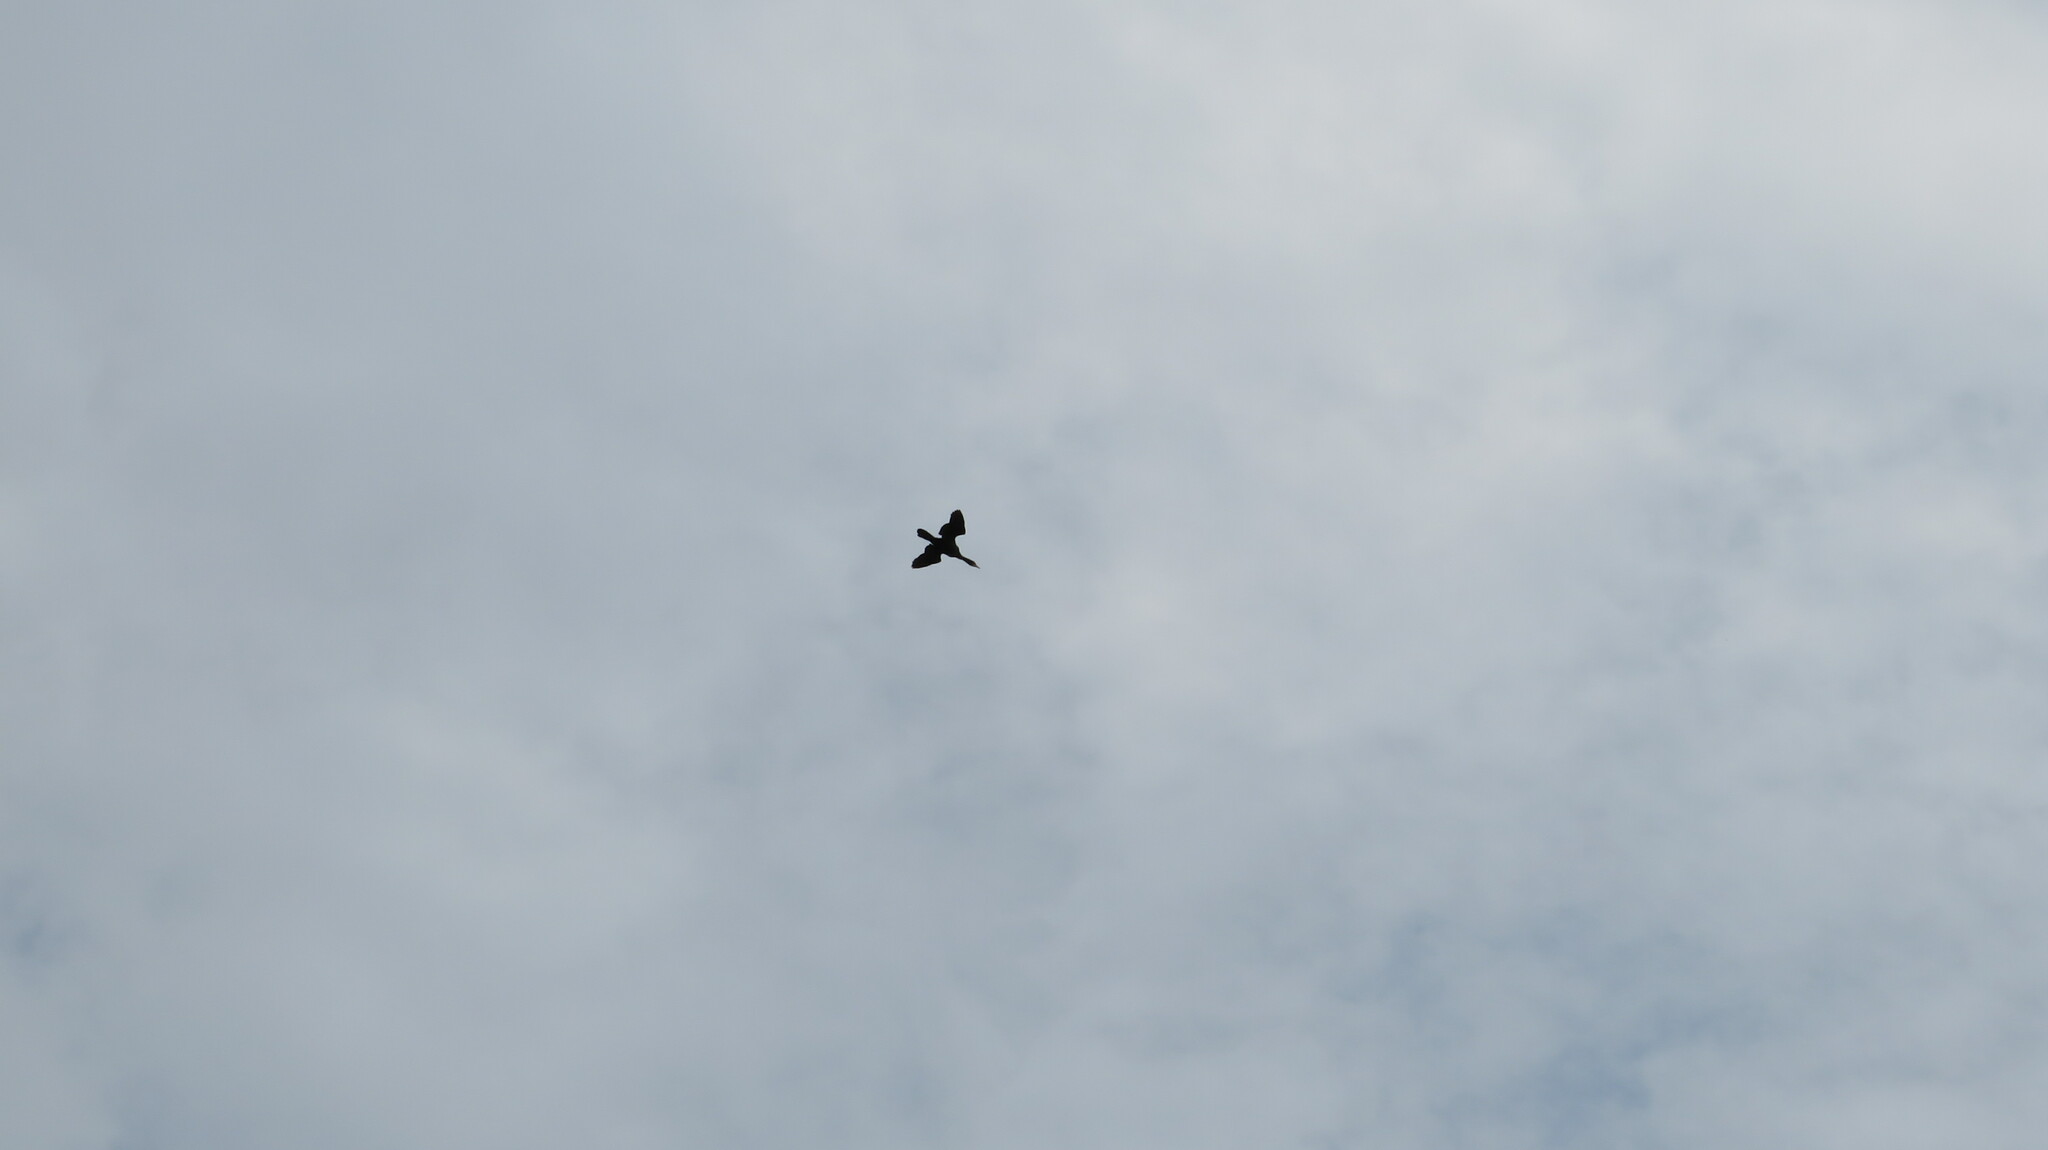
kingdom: Animalia
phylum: Chordata
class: Aves
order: Suliformes
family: Phalacrocoracidae
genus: Microcarbo
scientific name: Microcarbo niger
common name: Little cormorant
